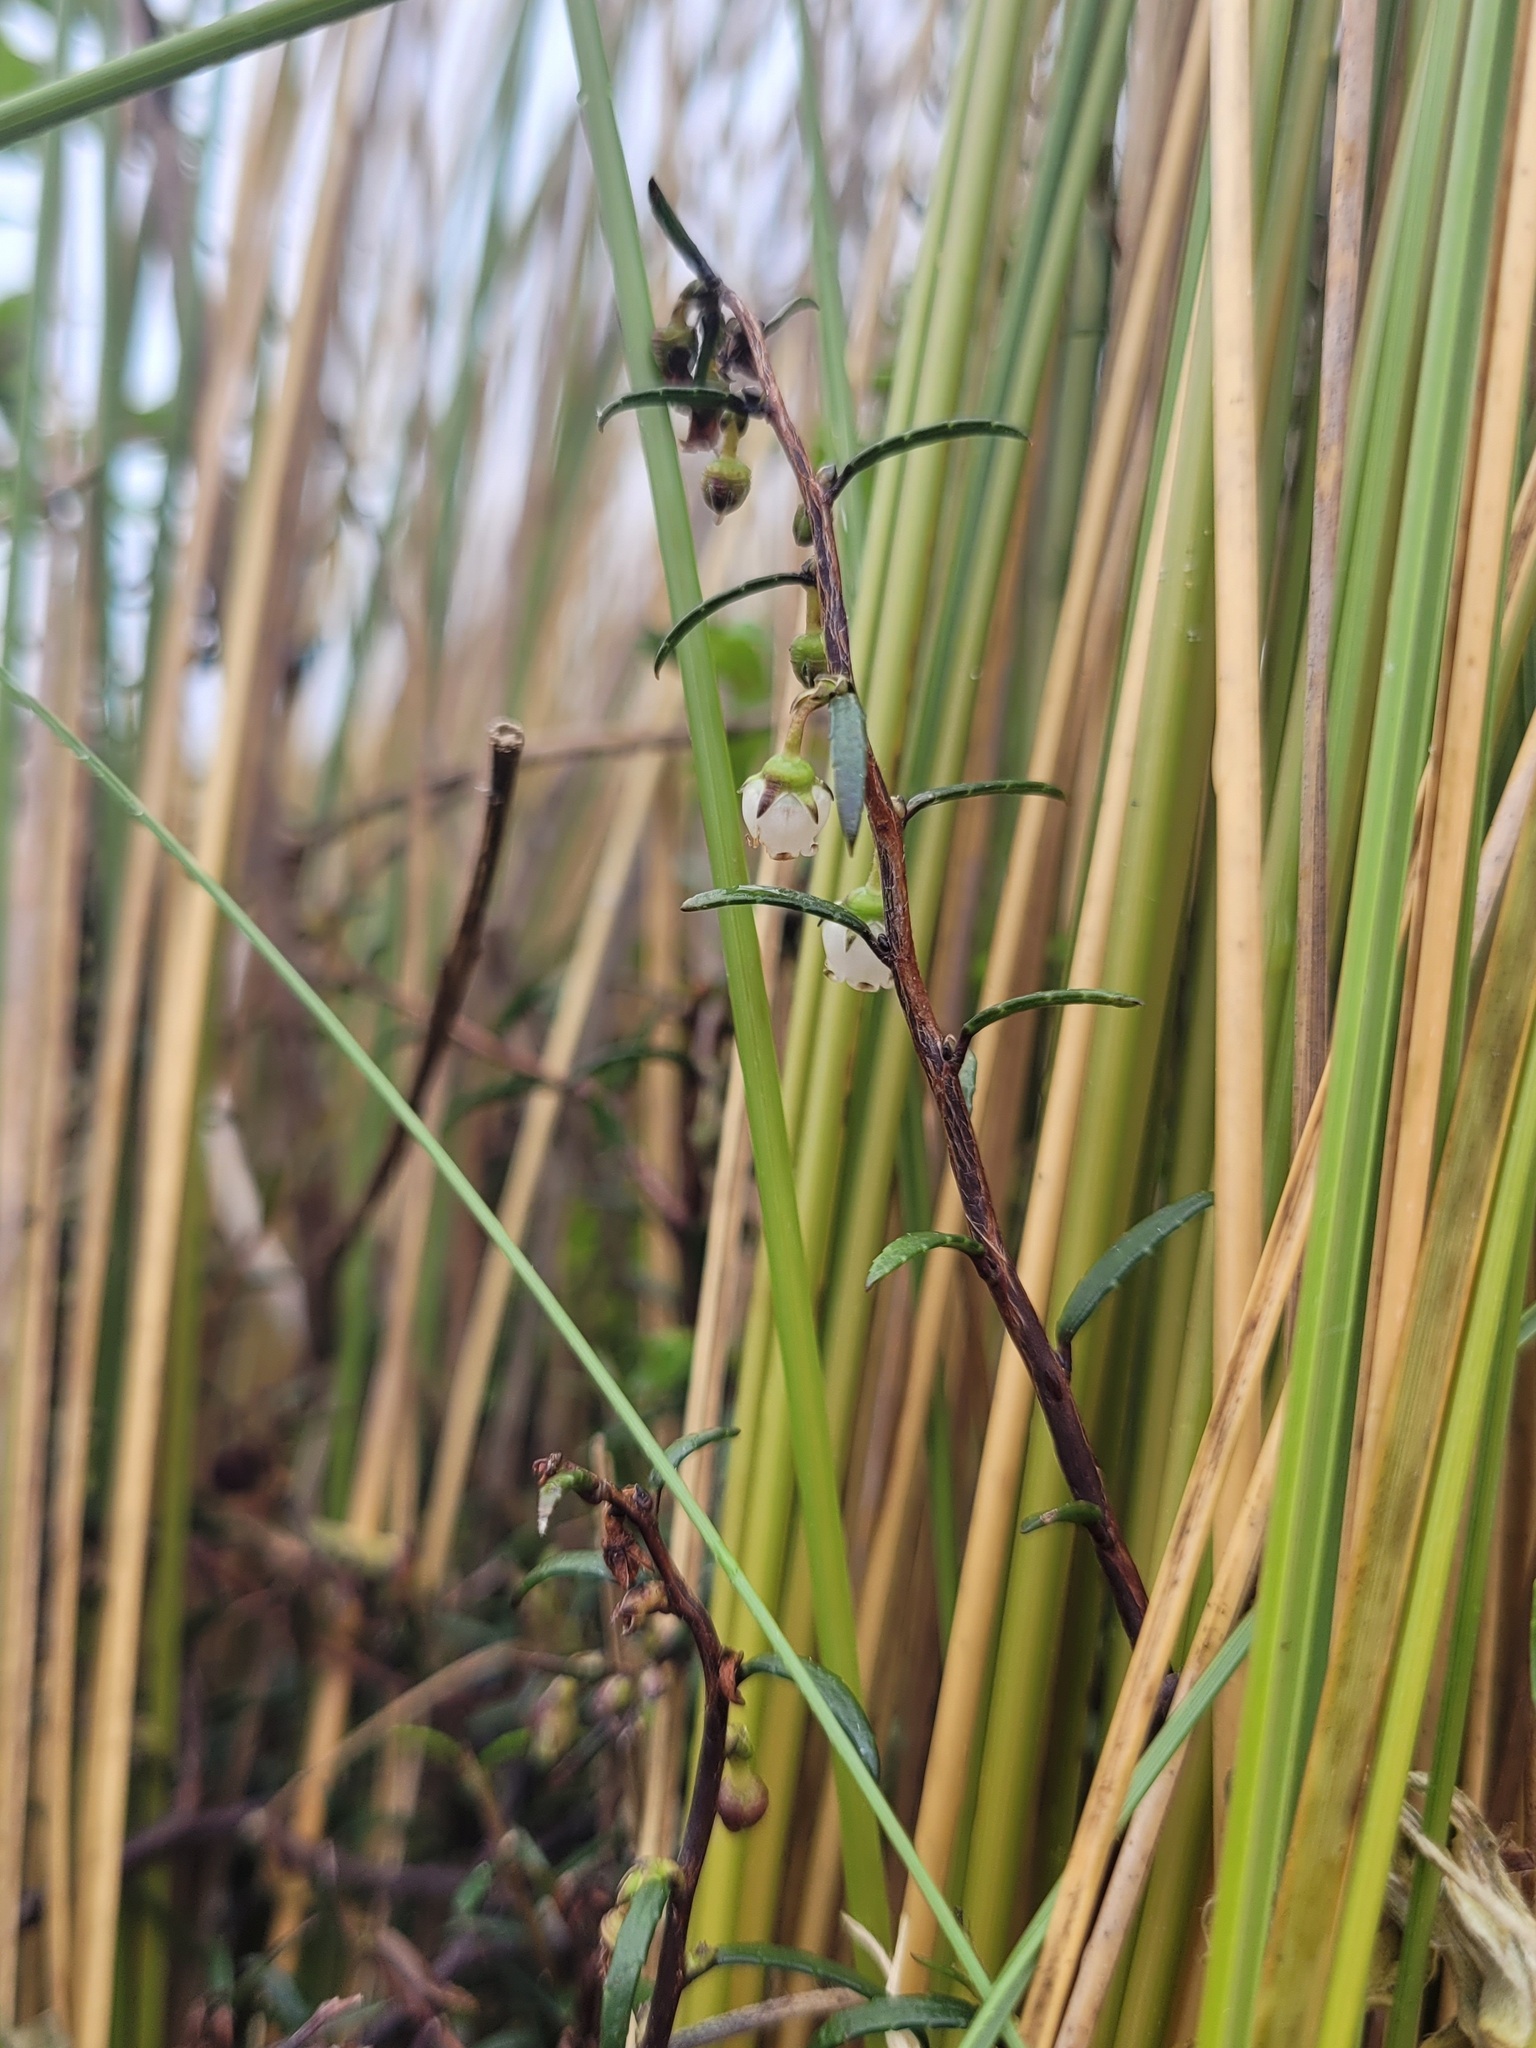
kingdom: Plantae
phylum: Tracheophyta
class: Magnoliopsida
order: Ericales
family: Ericaceae
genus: Gaultheria
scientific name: Gaultheria macrostigma
